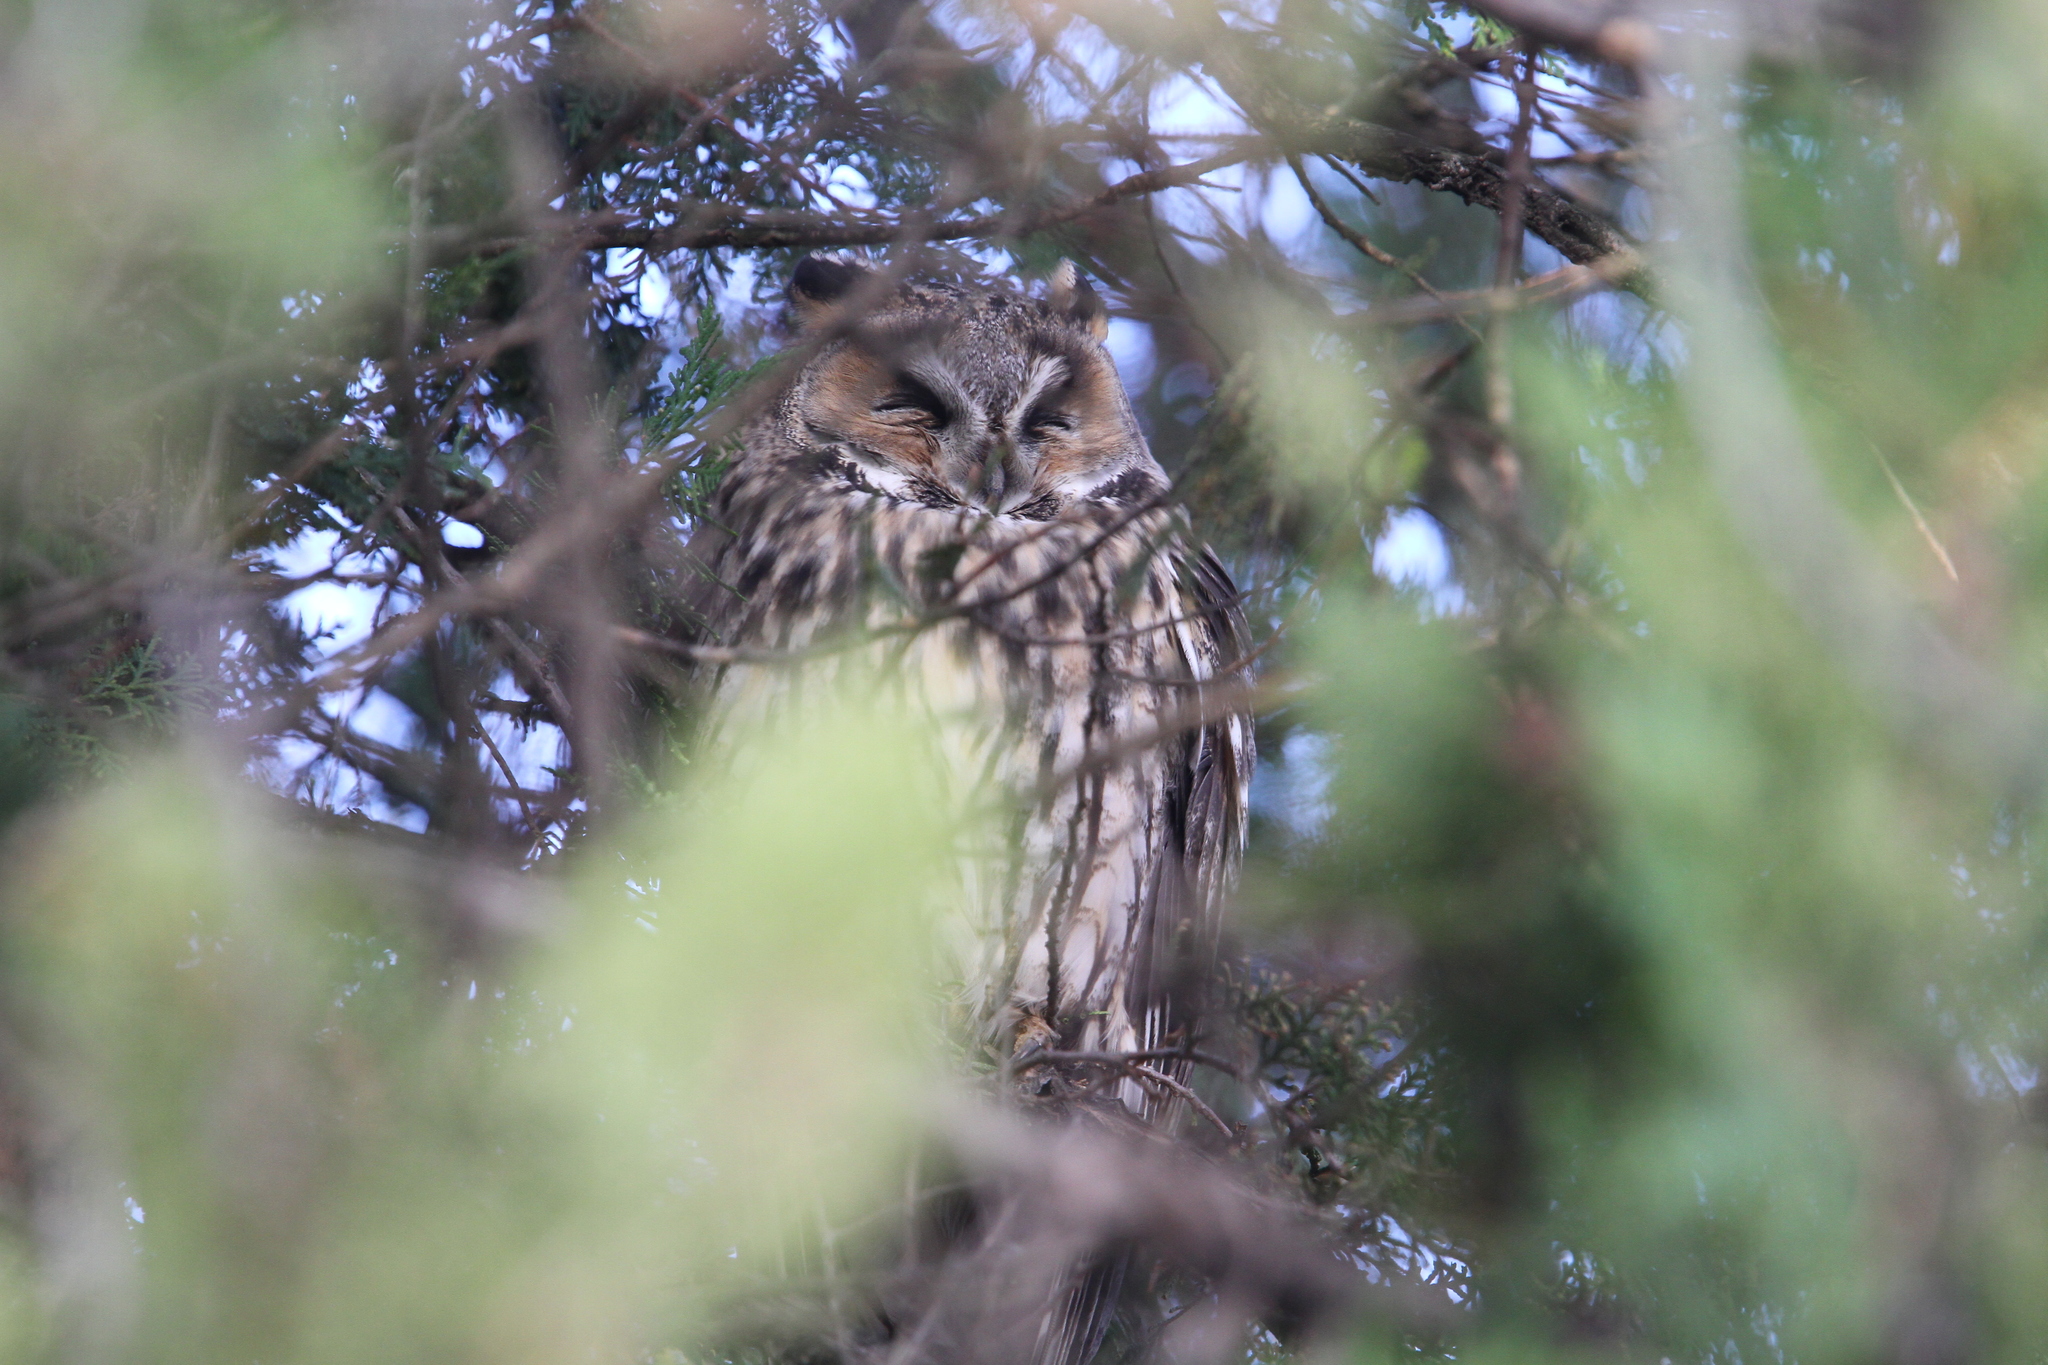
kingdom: Animalia
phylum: Chordata
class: Aves
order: Strigiformes
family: Strigidae
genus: Asio
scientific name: Asio otus
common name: Long-eared owl
